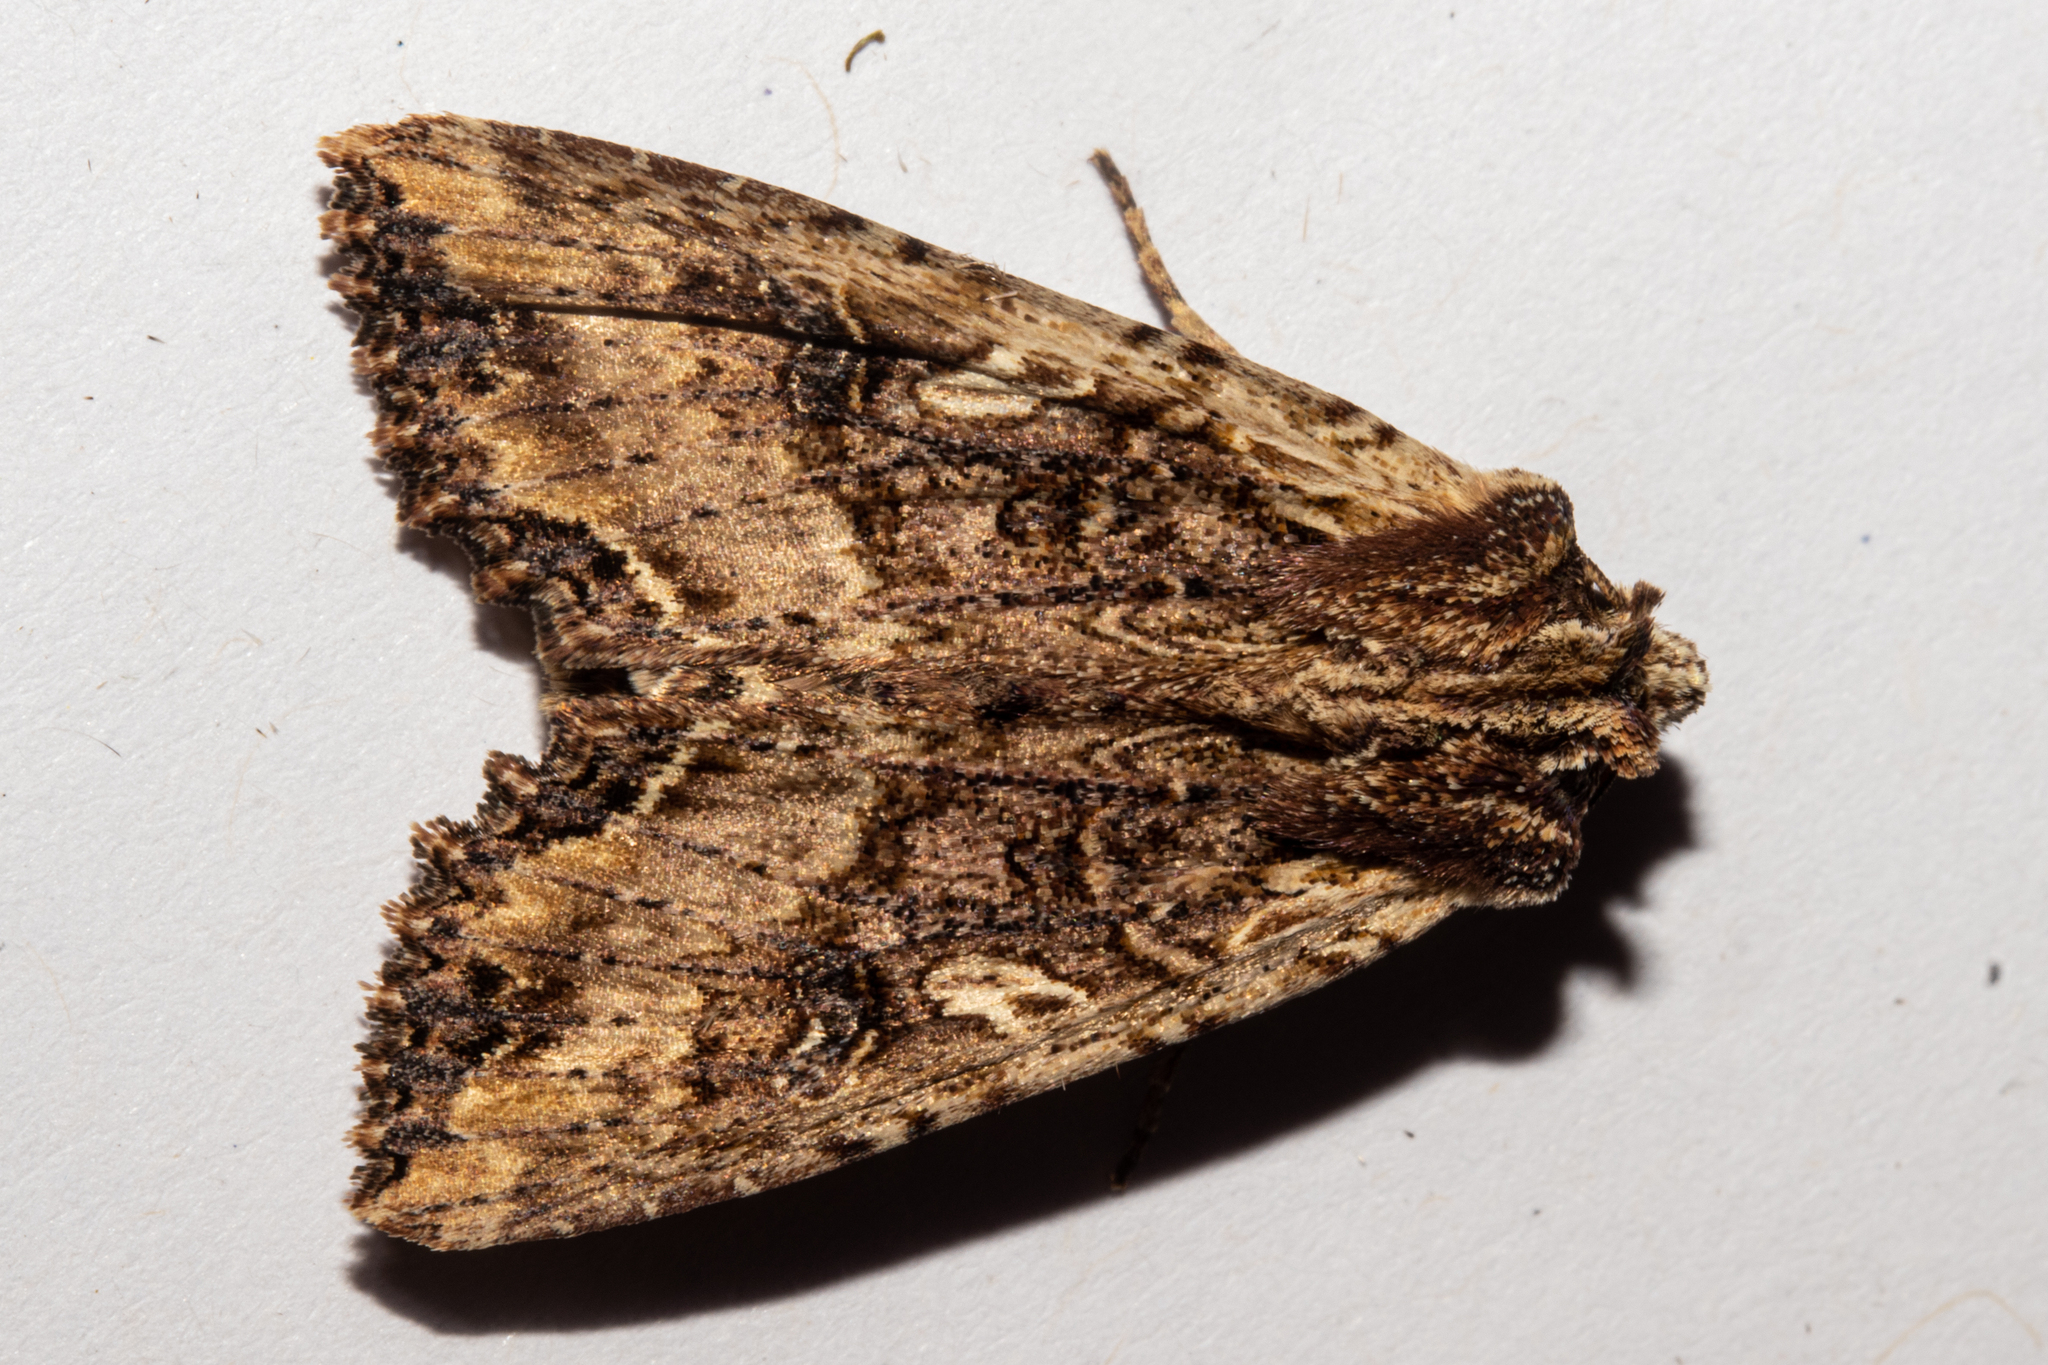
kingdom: Animalia
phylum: Arthropoda
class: Insecta
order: Lepidoptera
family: Noctuidae
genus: Meterana
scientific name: Meterana stipata
